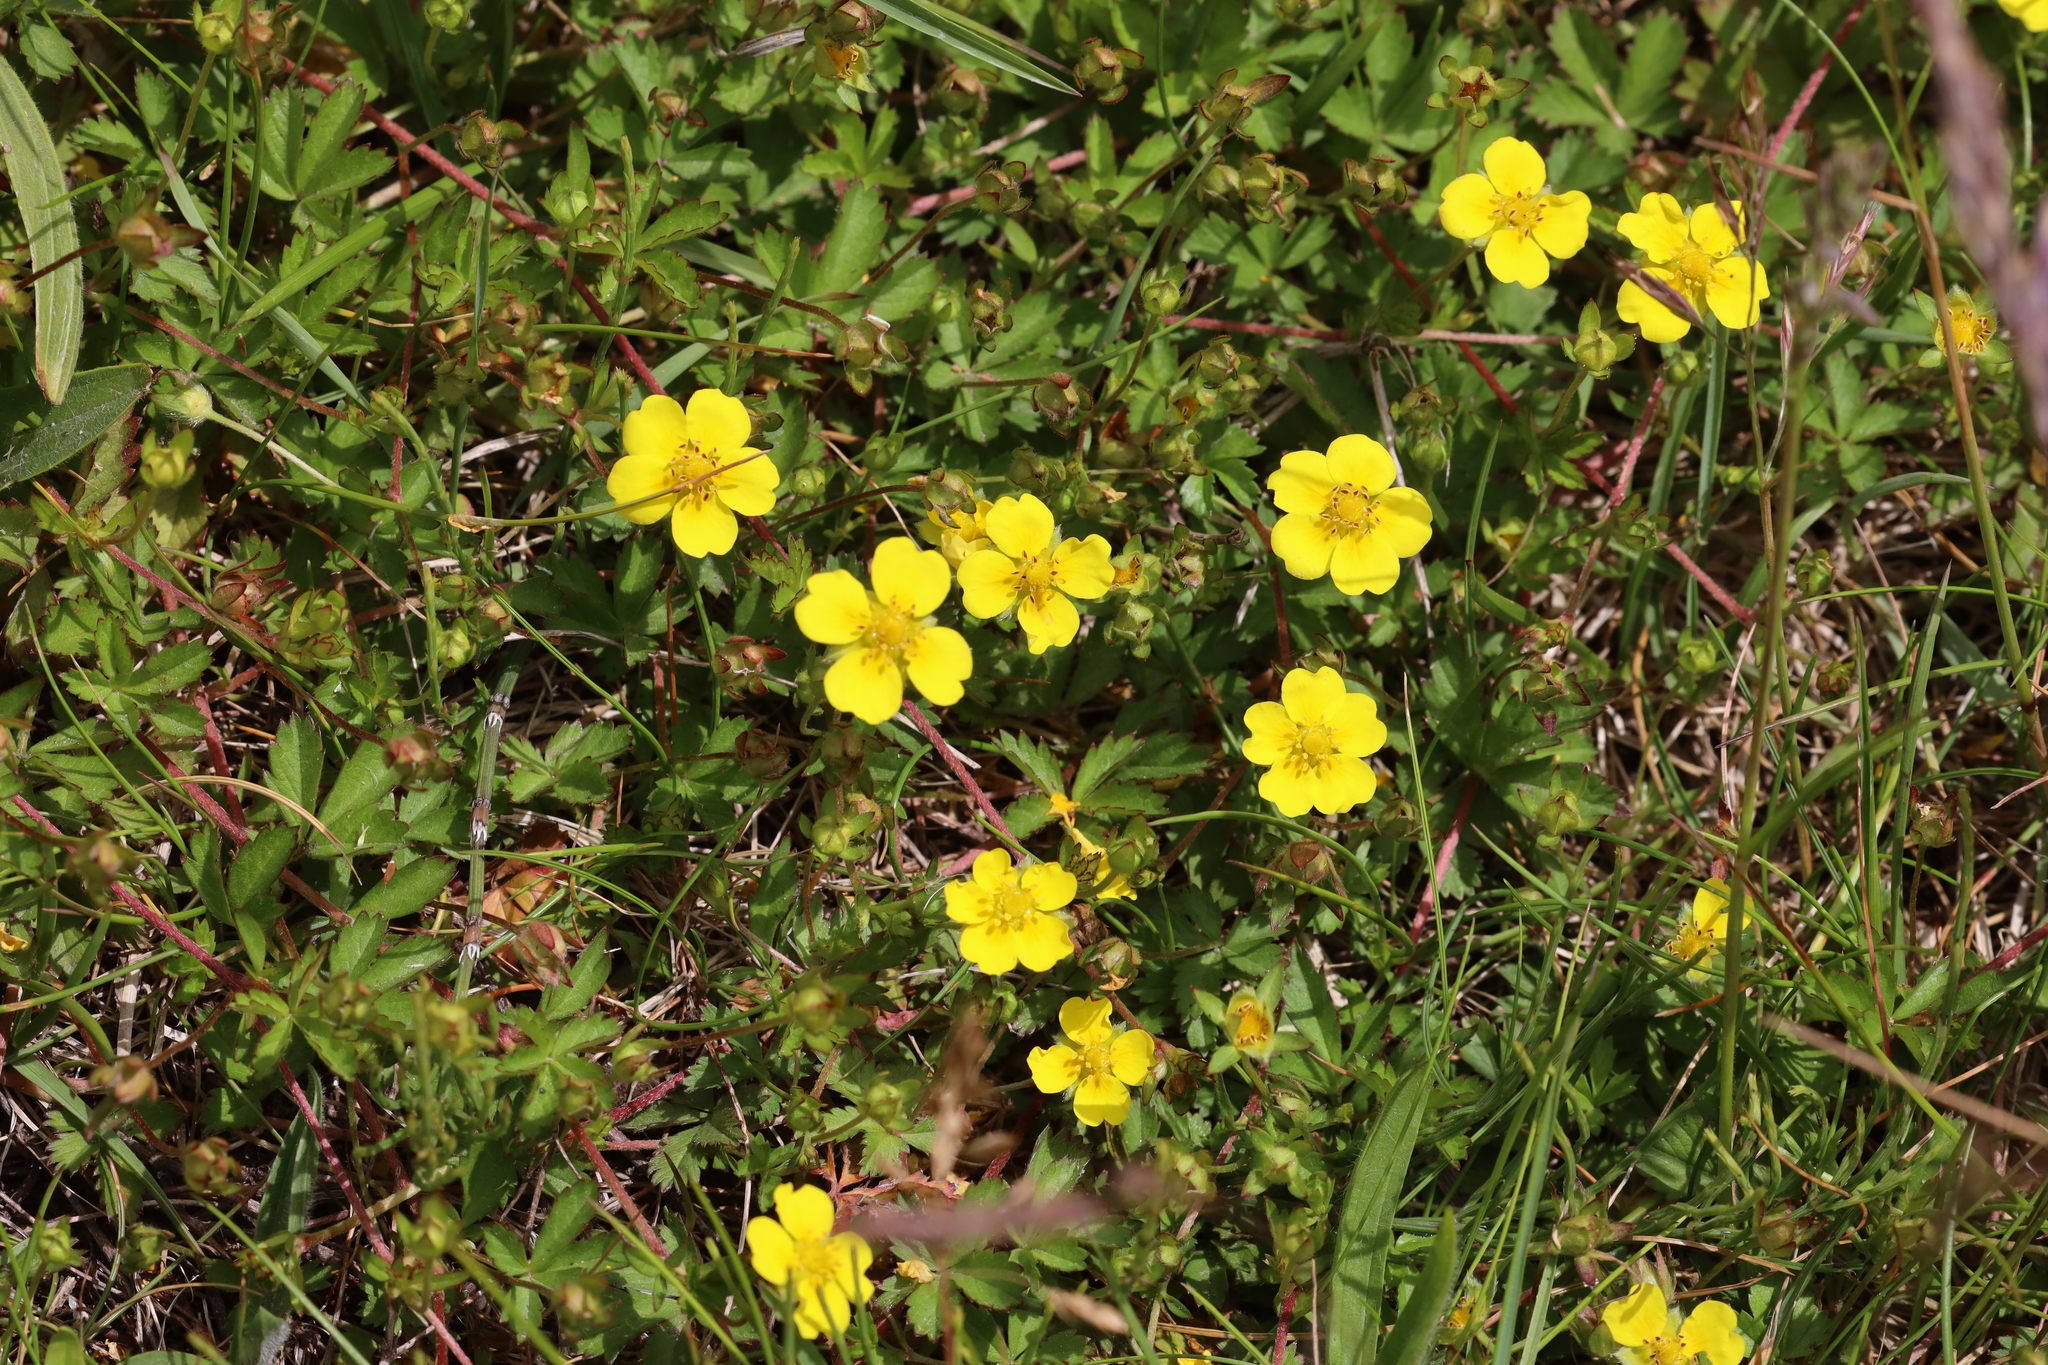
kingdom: Plantae
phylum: Tracheophyta
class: Magnoliopsida
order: Rosales
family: Rosaceae
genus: Potentilla
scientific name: Potentilla erecta
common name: Tormentil
